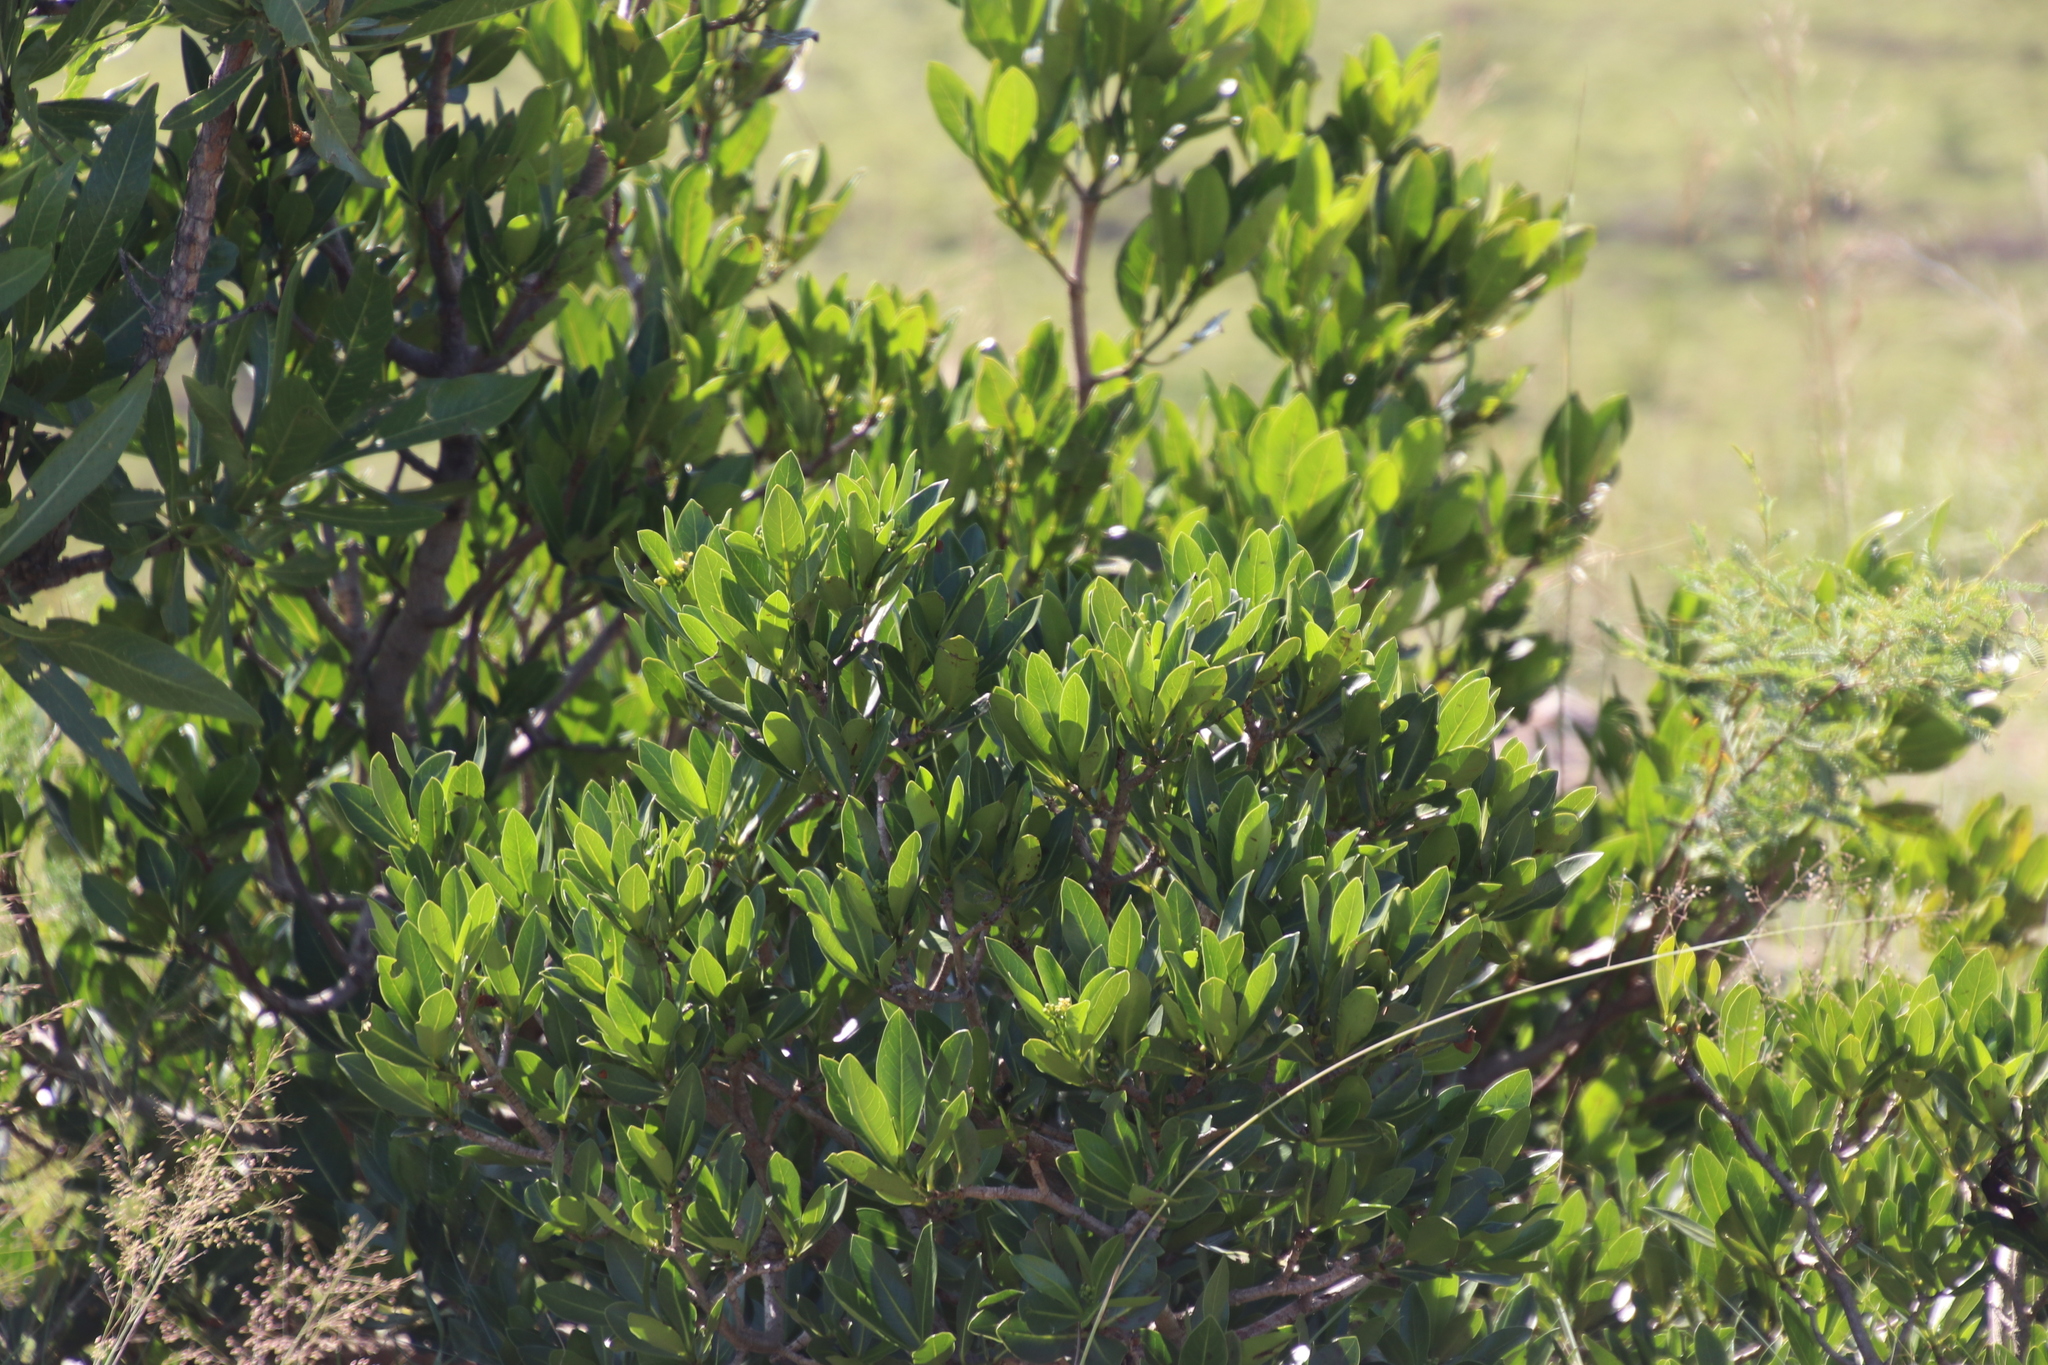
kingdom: Plantae
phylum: Tracheophyta
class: Magnoliopsida
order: Gentianales
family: Rubiaceae
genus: Psychotria
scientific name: Psychotria
